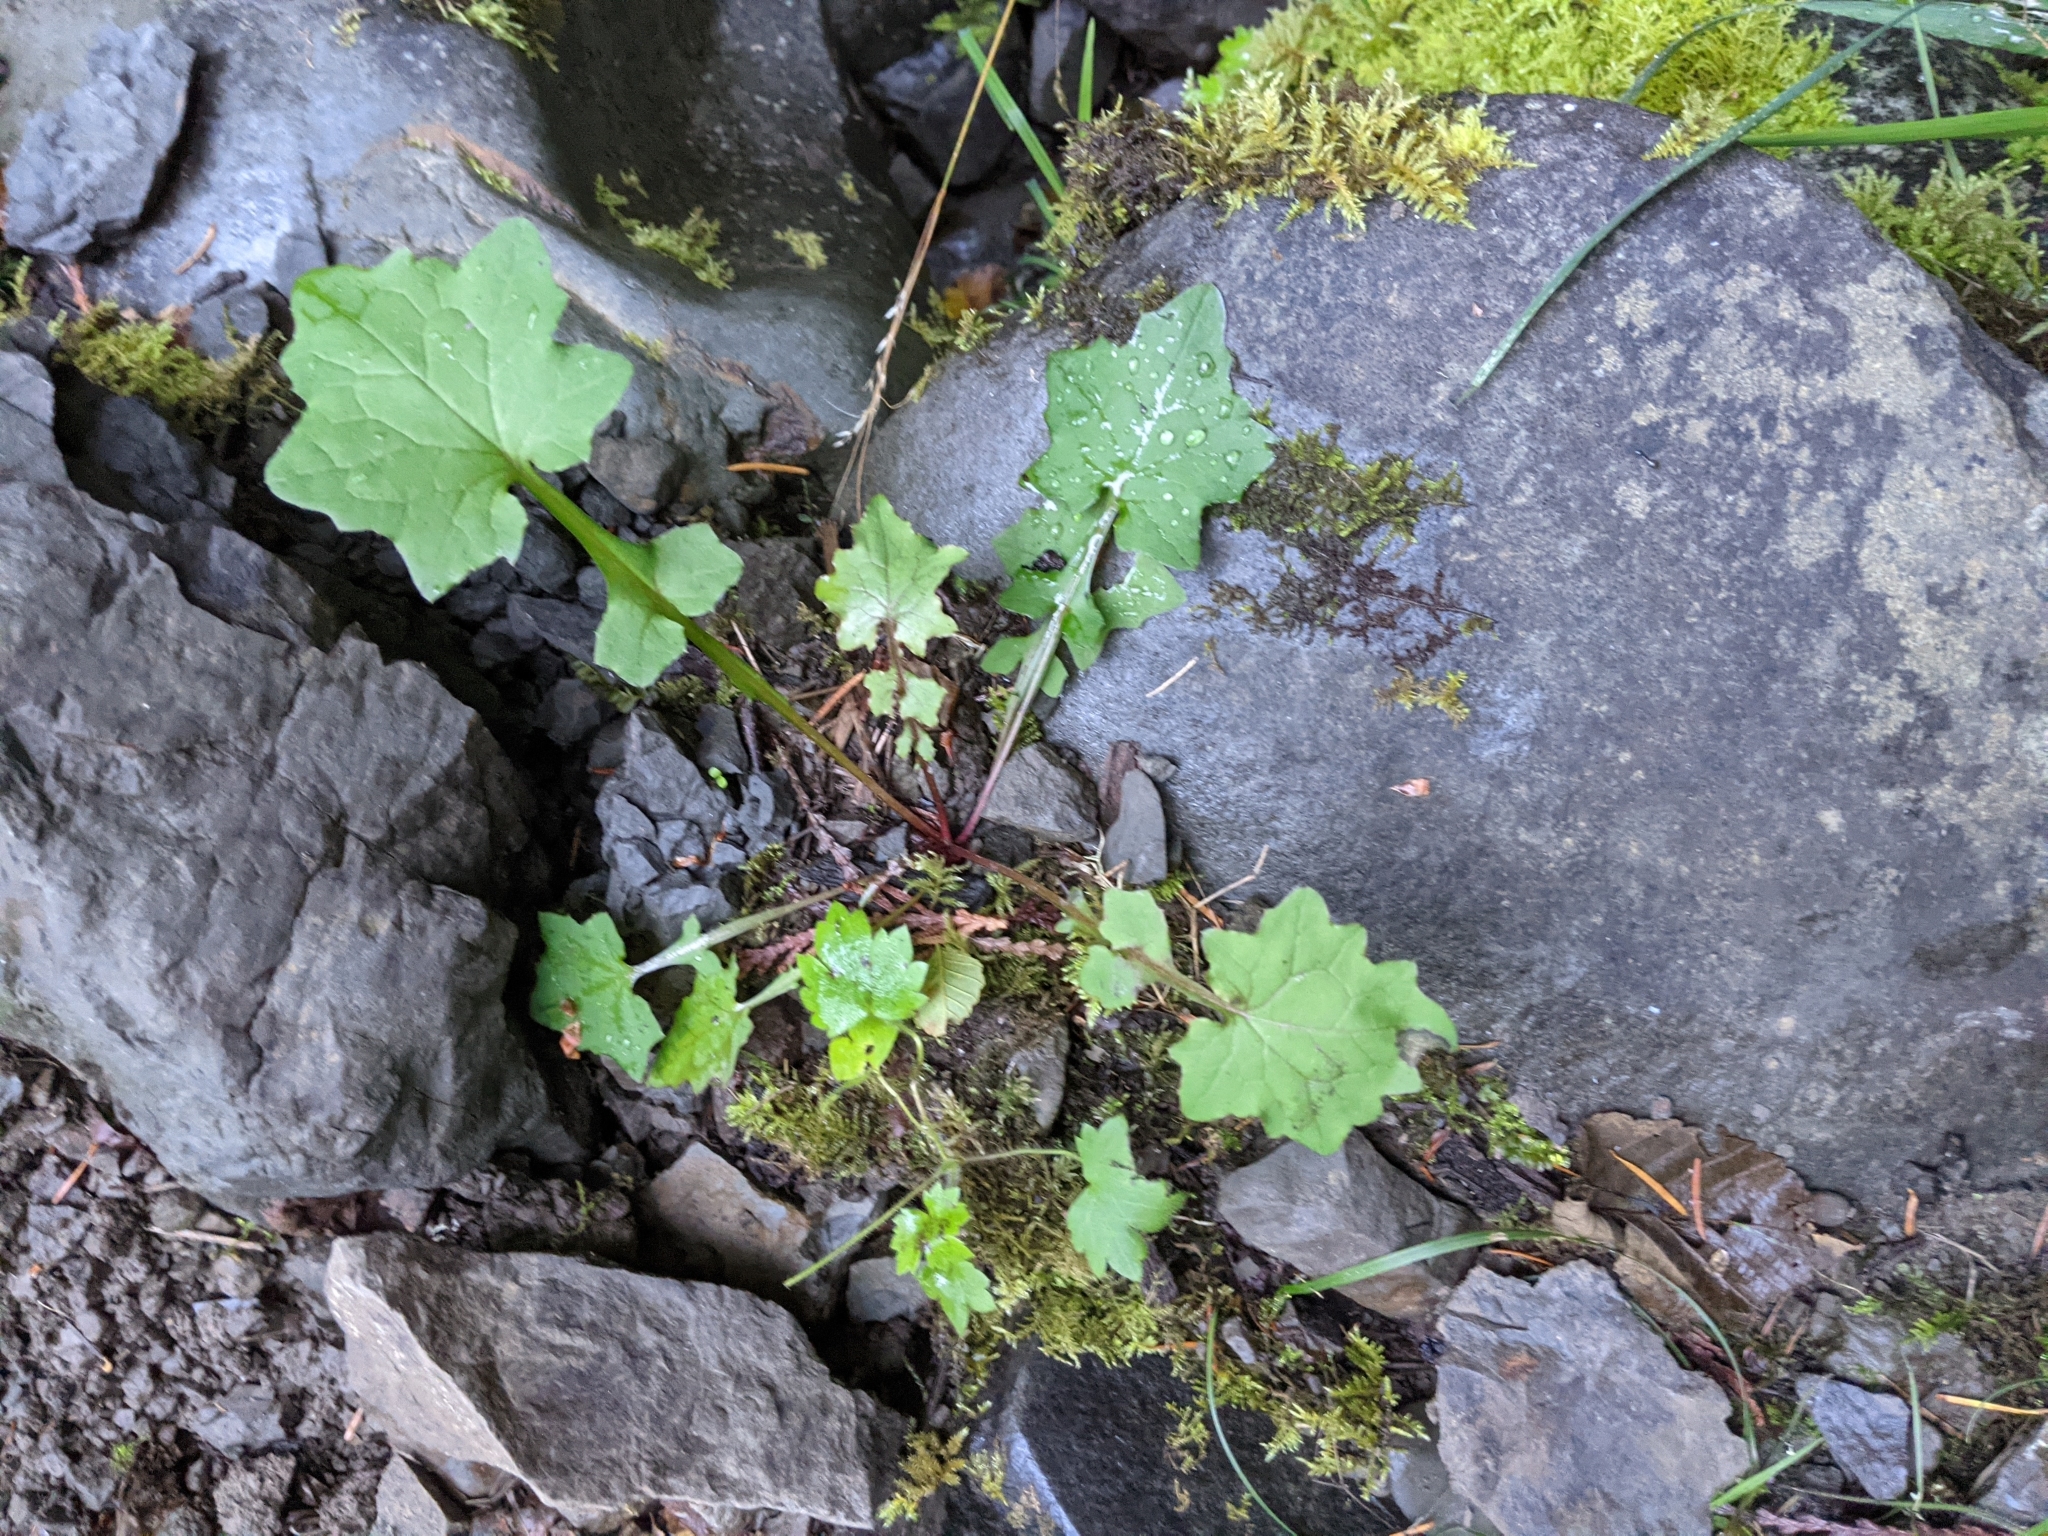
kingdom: Plantae
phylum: Tracheophyta
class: Magnoliopsida
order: Asterales
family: Asteraceae
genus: Mycelis
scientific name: Mycelis muralis
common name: Wall lettuce
